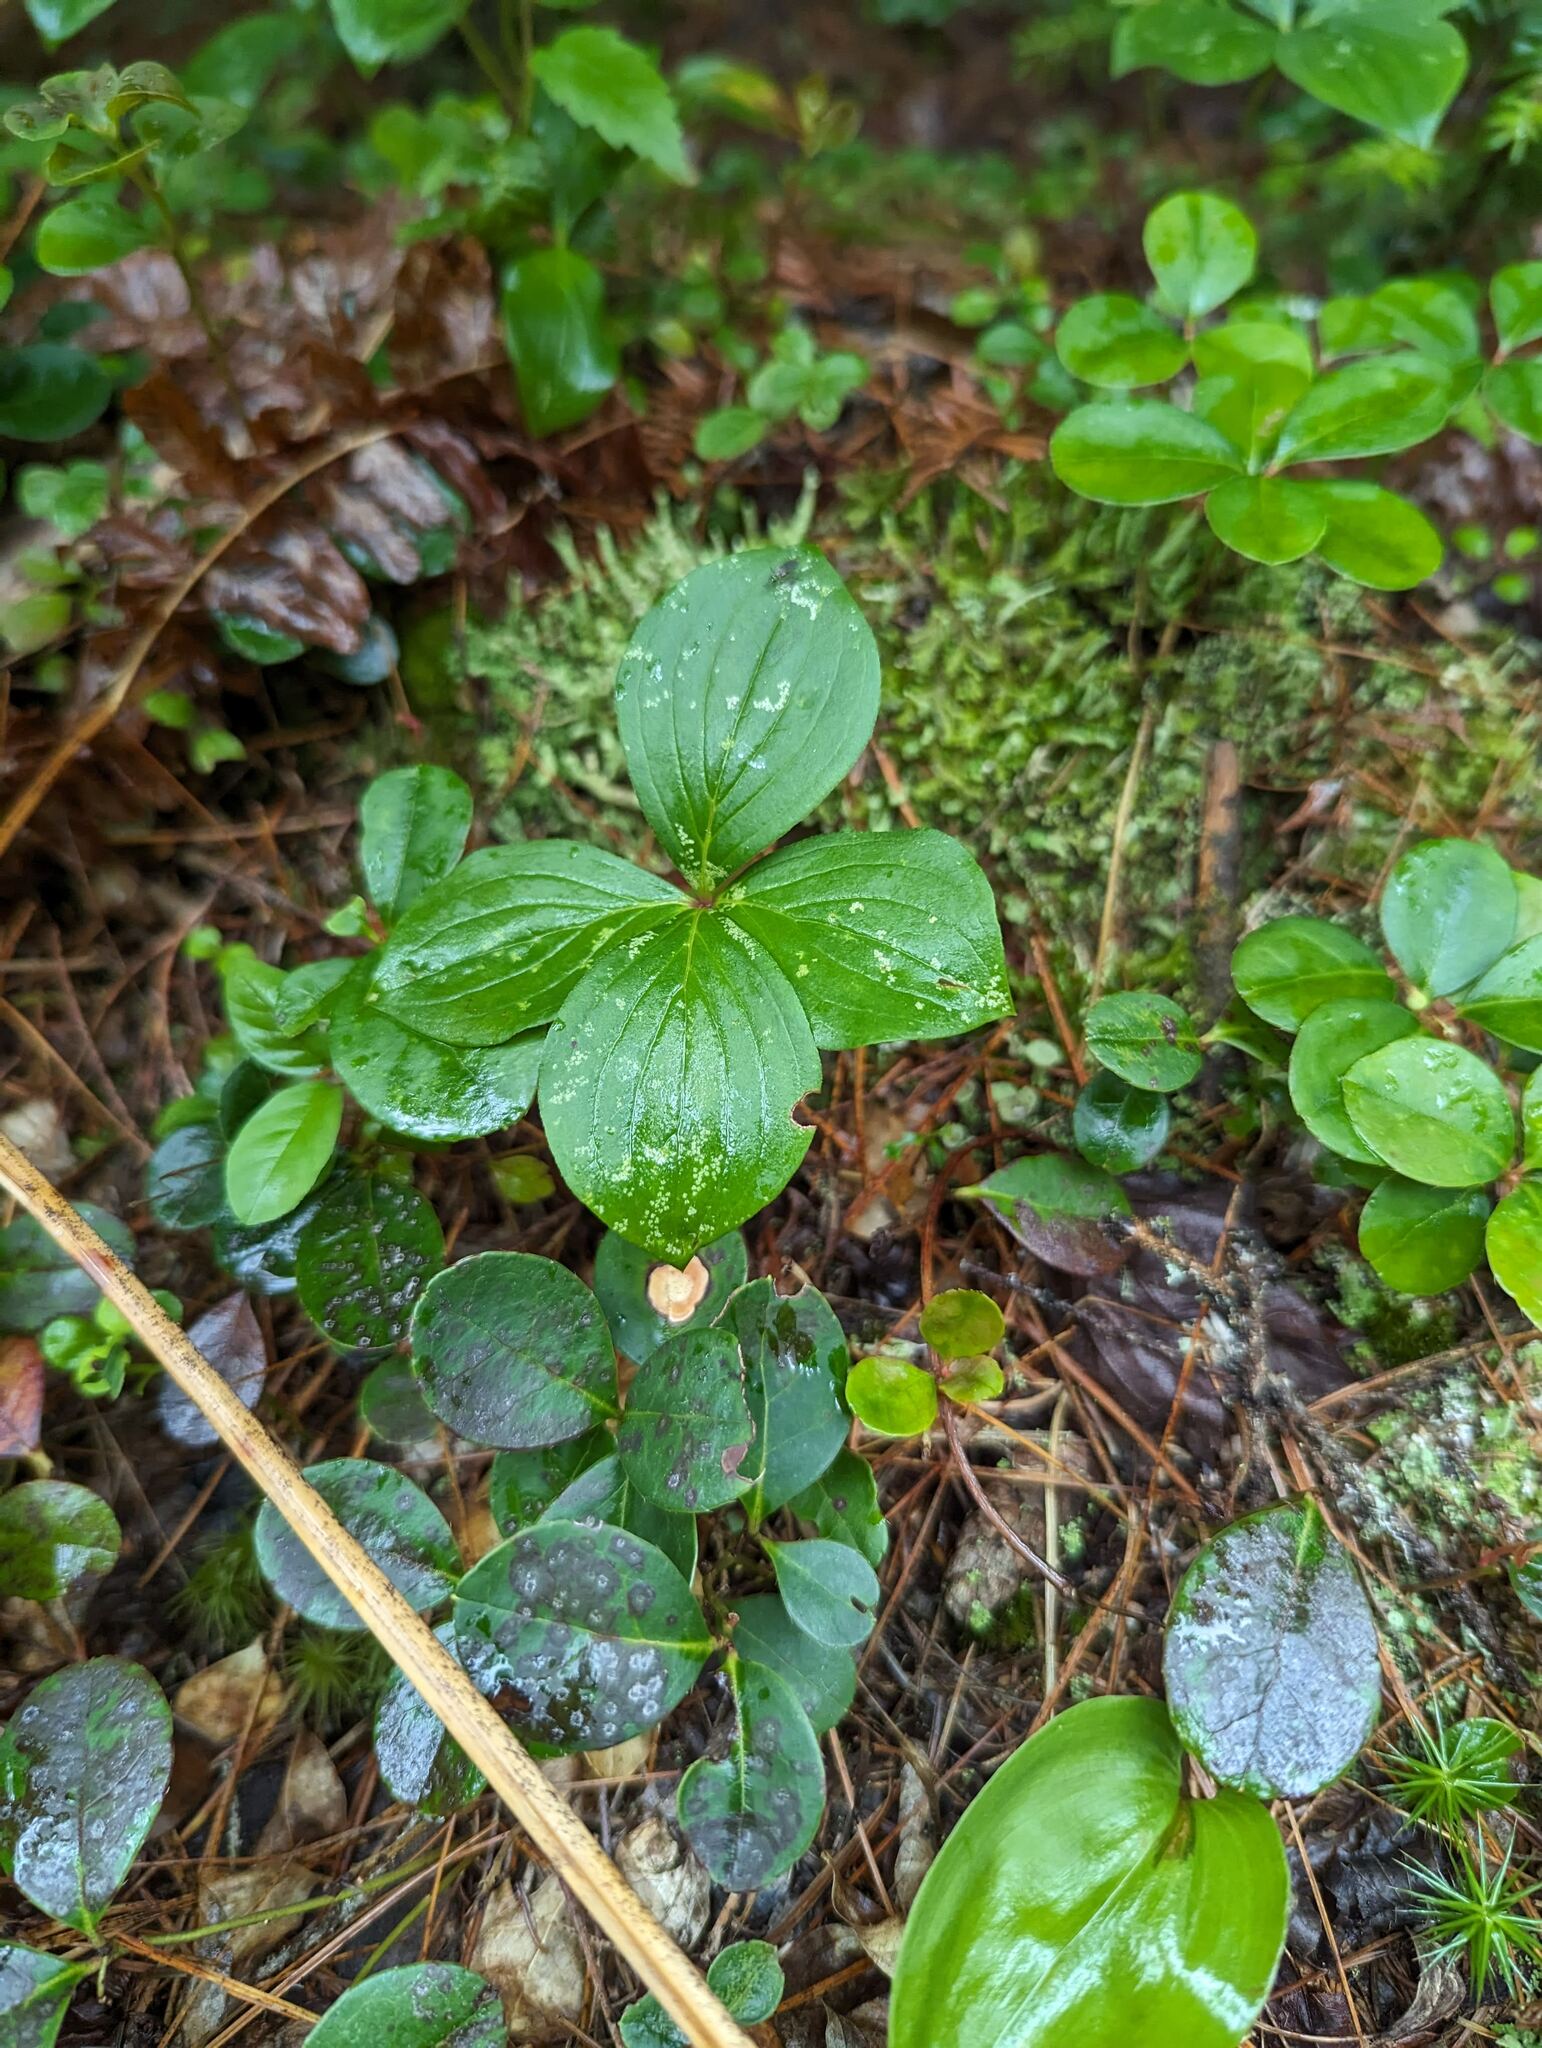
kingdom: Plantae
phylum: Tracheophyta
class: Magnoliopsida
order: Cornales
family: Cornaceae
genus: Cornus
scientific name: Cornus canadensis
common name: Creeping dogwood
